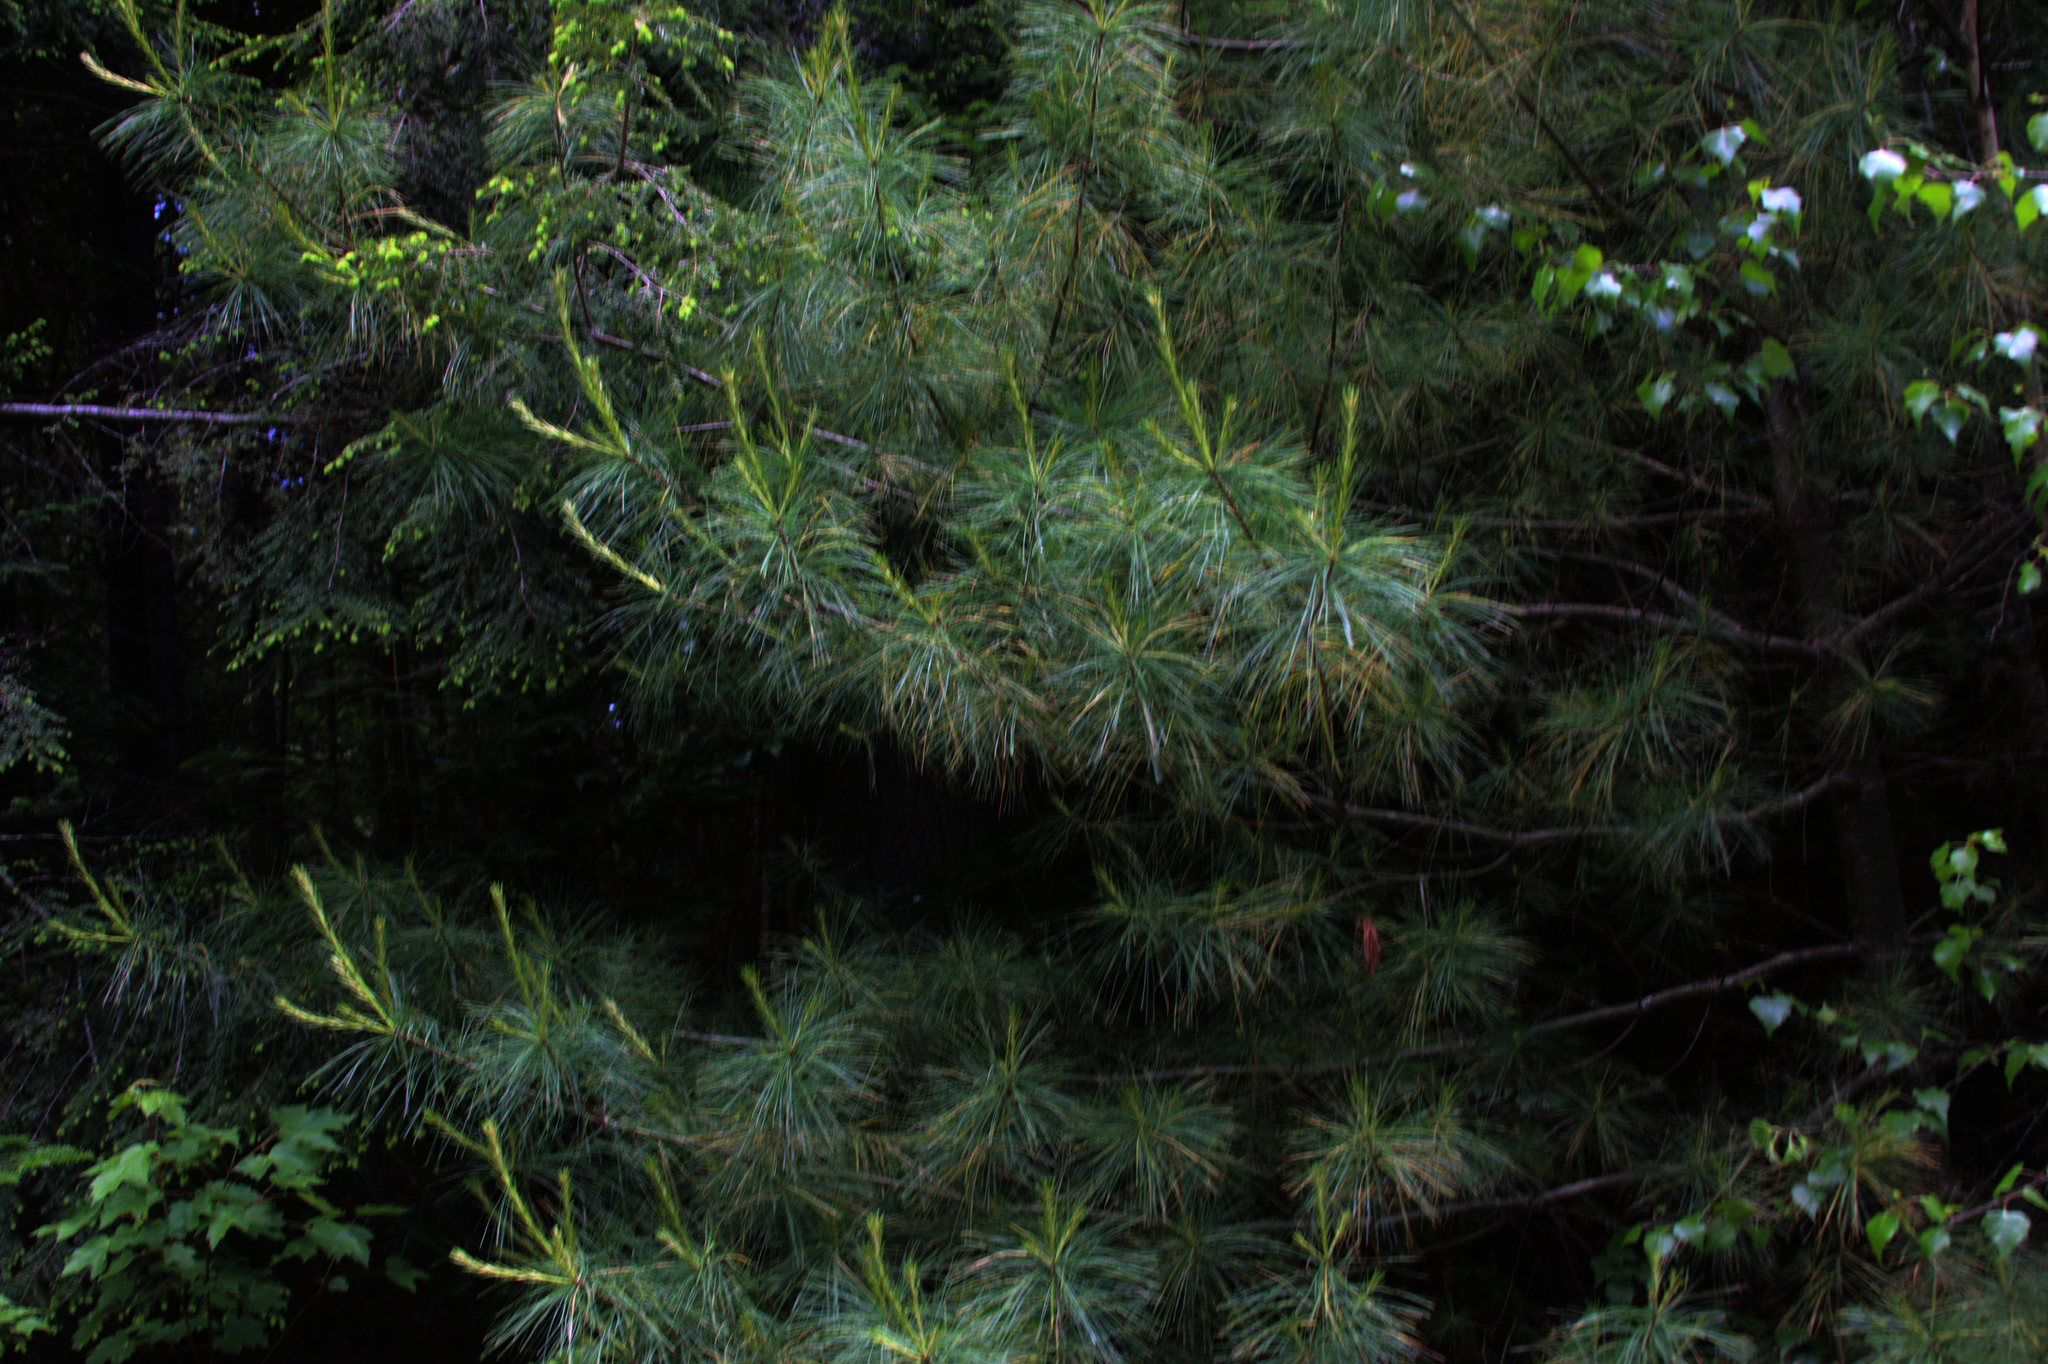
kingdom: Plantae
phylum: Tracheophyta
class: Pinopsida
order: Pinales
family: Pinaceae
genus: Pinus
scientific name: Pinus strobus
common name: Weymouth pine
